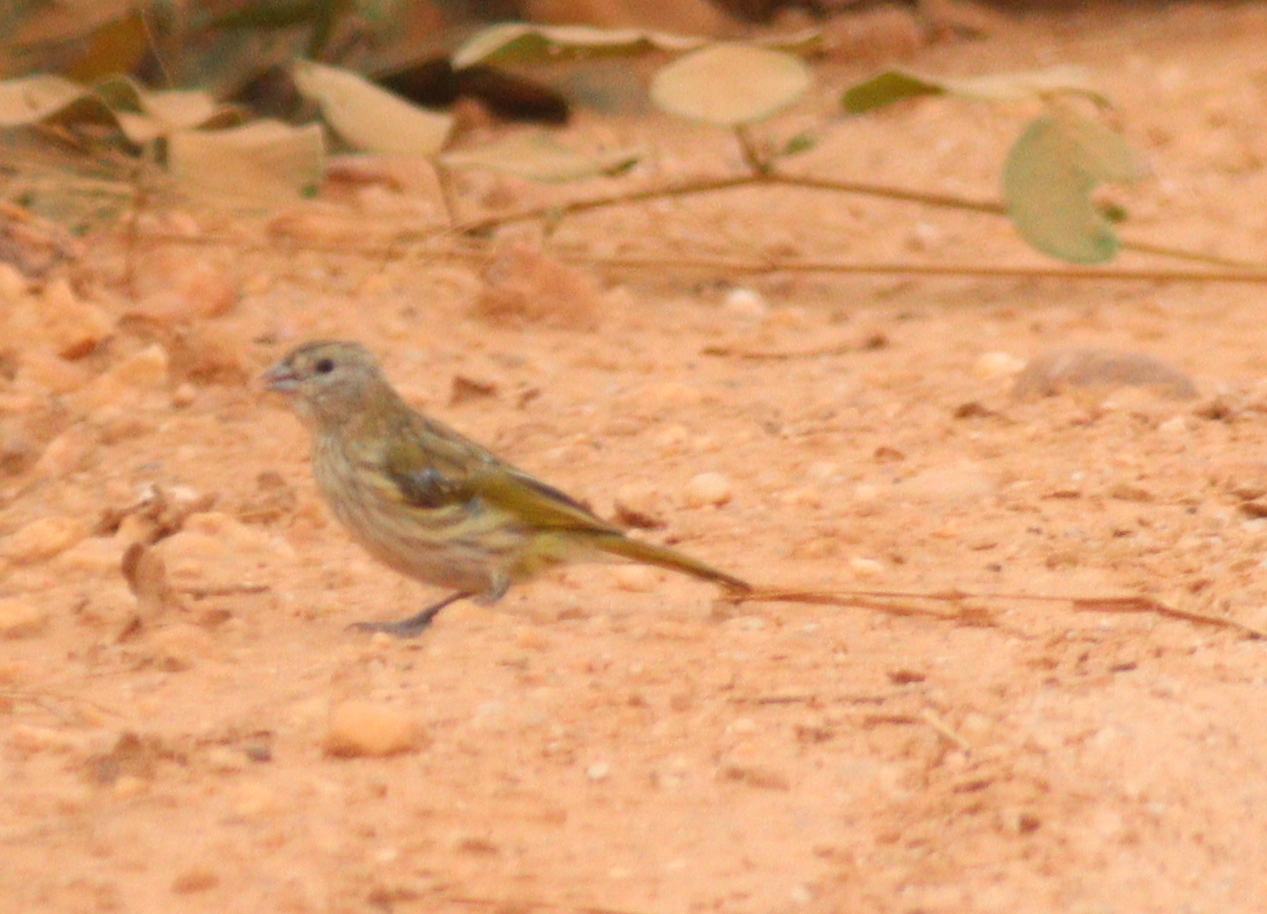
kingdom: Animalia
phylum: Chordata
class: Aves
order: Passeriformes
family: Thraupidae
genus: Sicalis
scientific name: Sicalis flaveola
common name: Saffron finch
